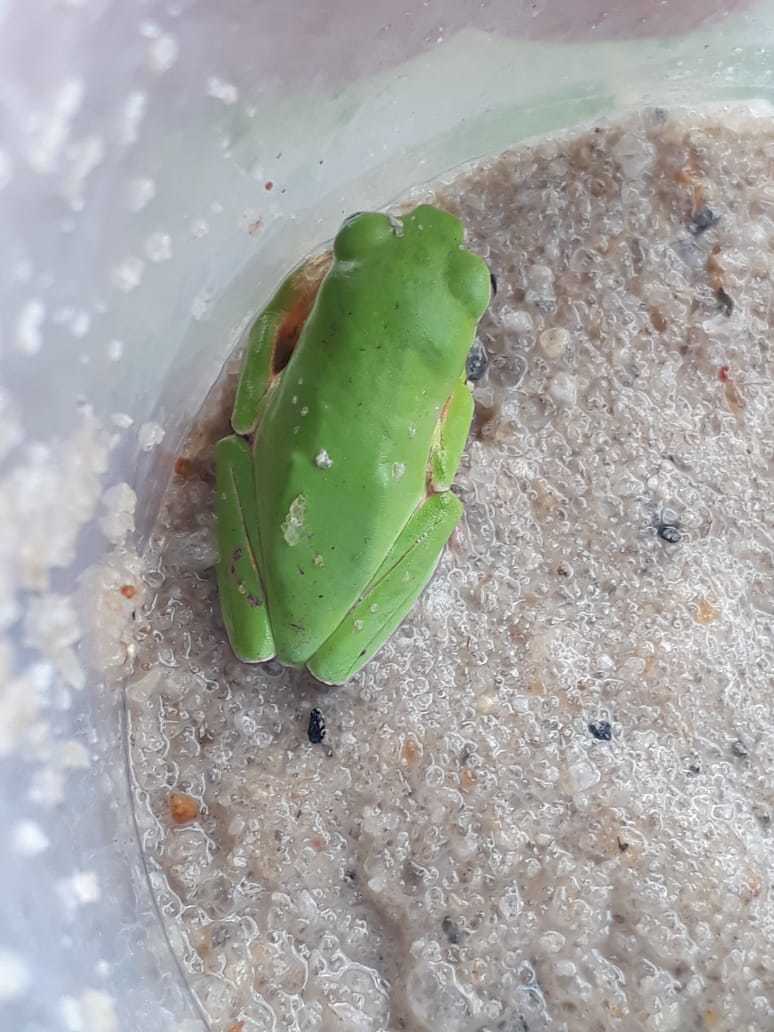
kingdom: Animalia
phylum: Chordata
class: Amphibia
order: Anura
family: Phyllomedusidae
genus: Pithecopus
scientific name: Pithecopus gonzagai
